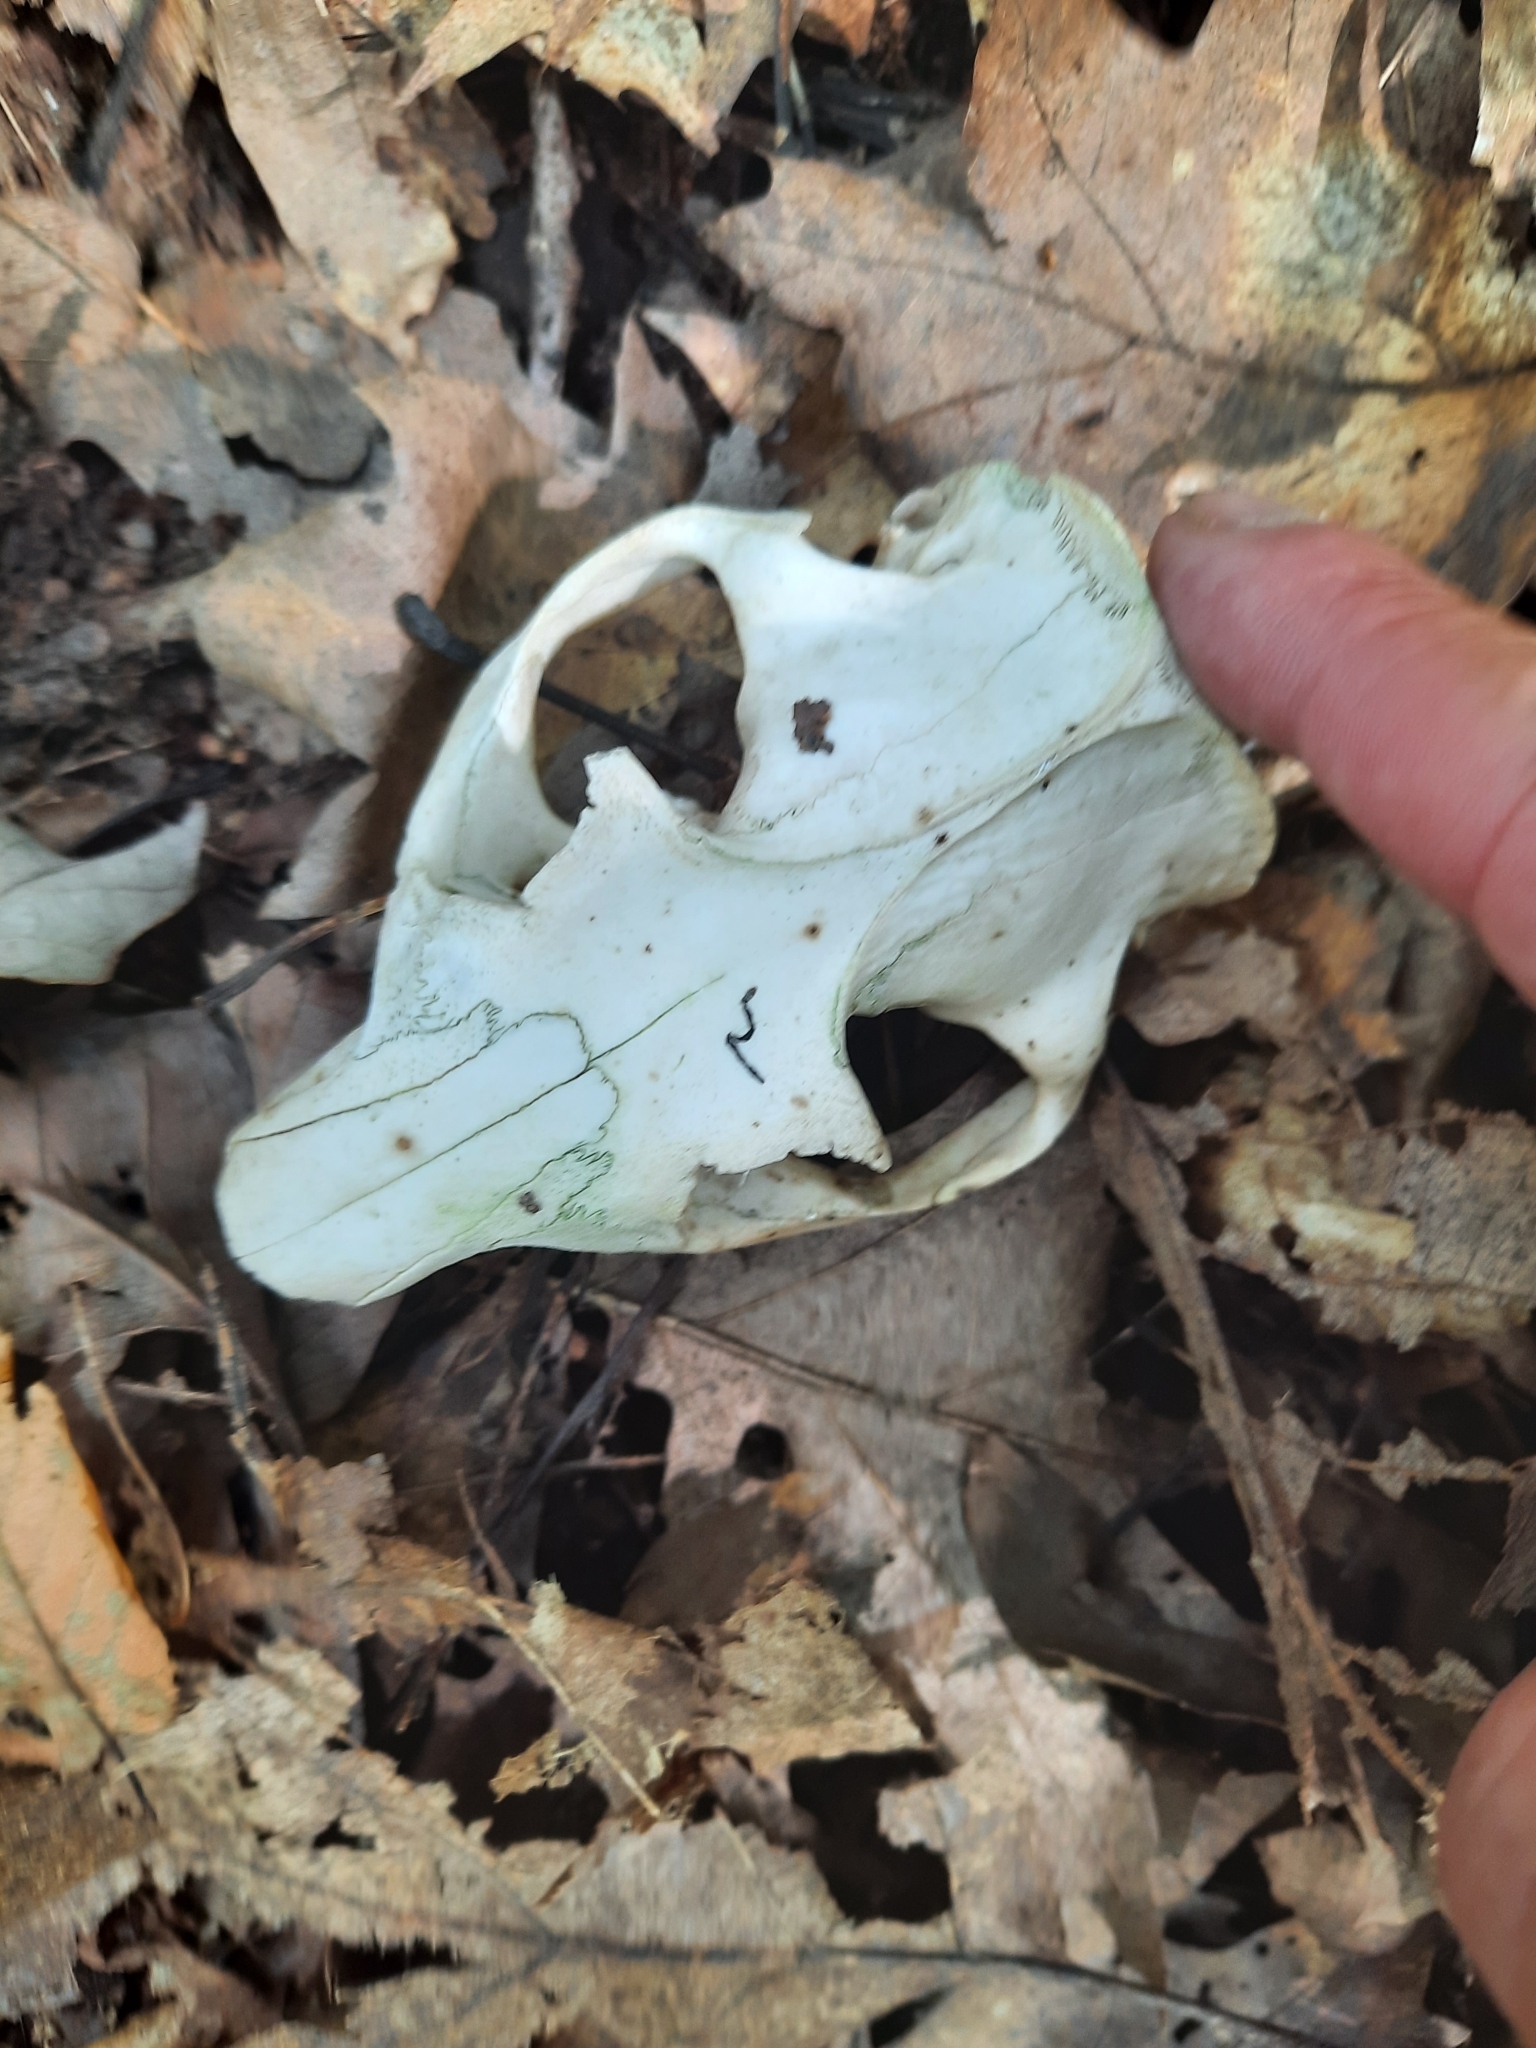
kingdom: Animalia
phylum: Chordata
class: Mammalia
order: Rodentia
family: Sciuridae
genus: Marmota
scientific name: Marmota monax
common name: Groundhog
